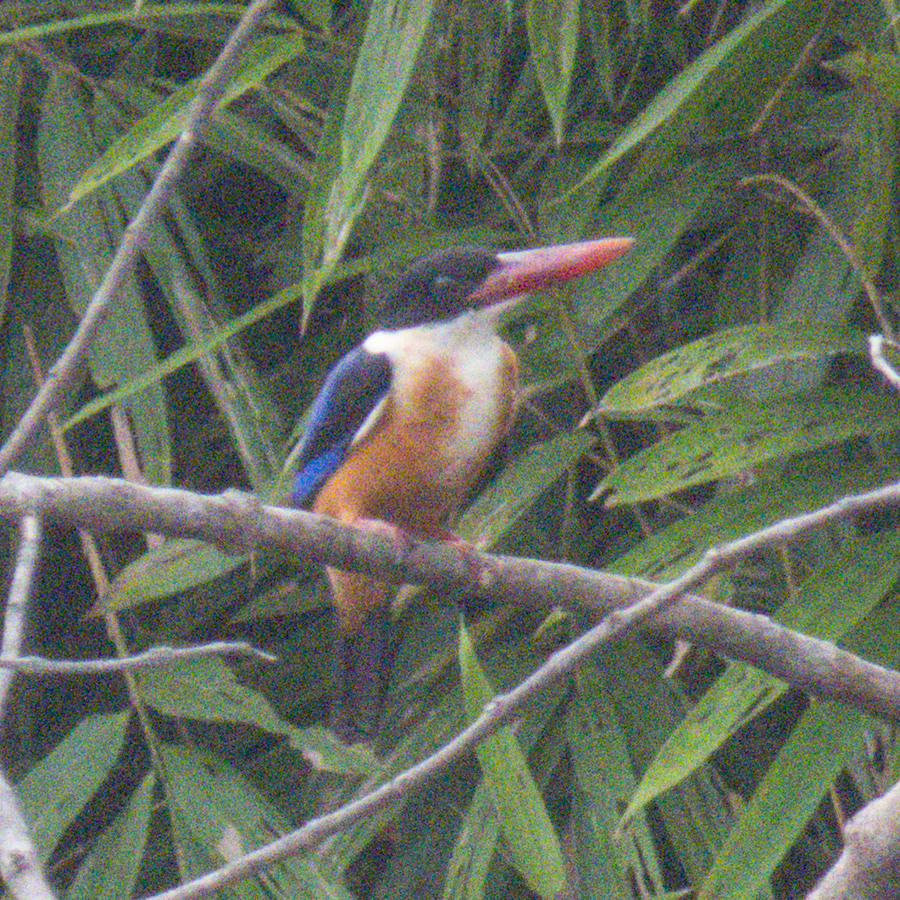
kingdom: Animalia
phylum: Chordata
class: Aves
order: Coraciiformes
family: Alcedinidae
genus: Halcyon
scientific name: Halcyon pileata
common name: Black-capped kingfisher
